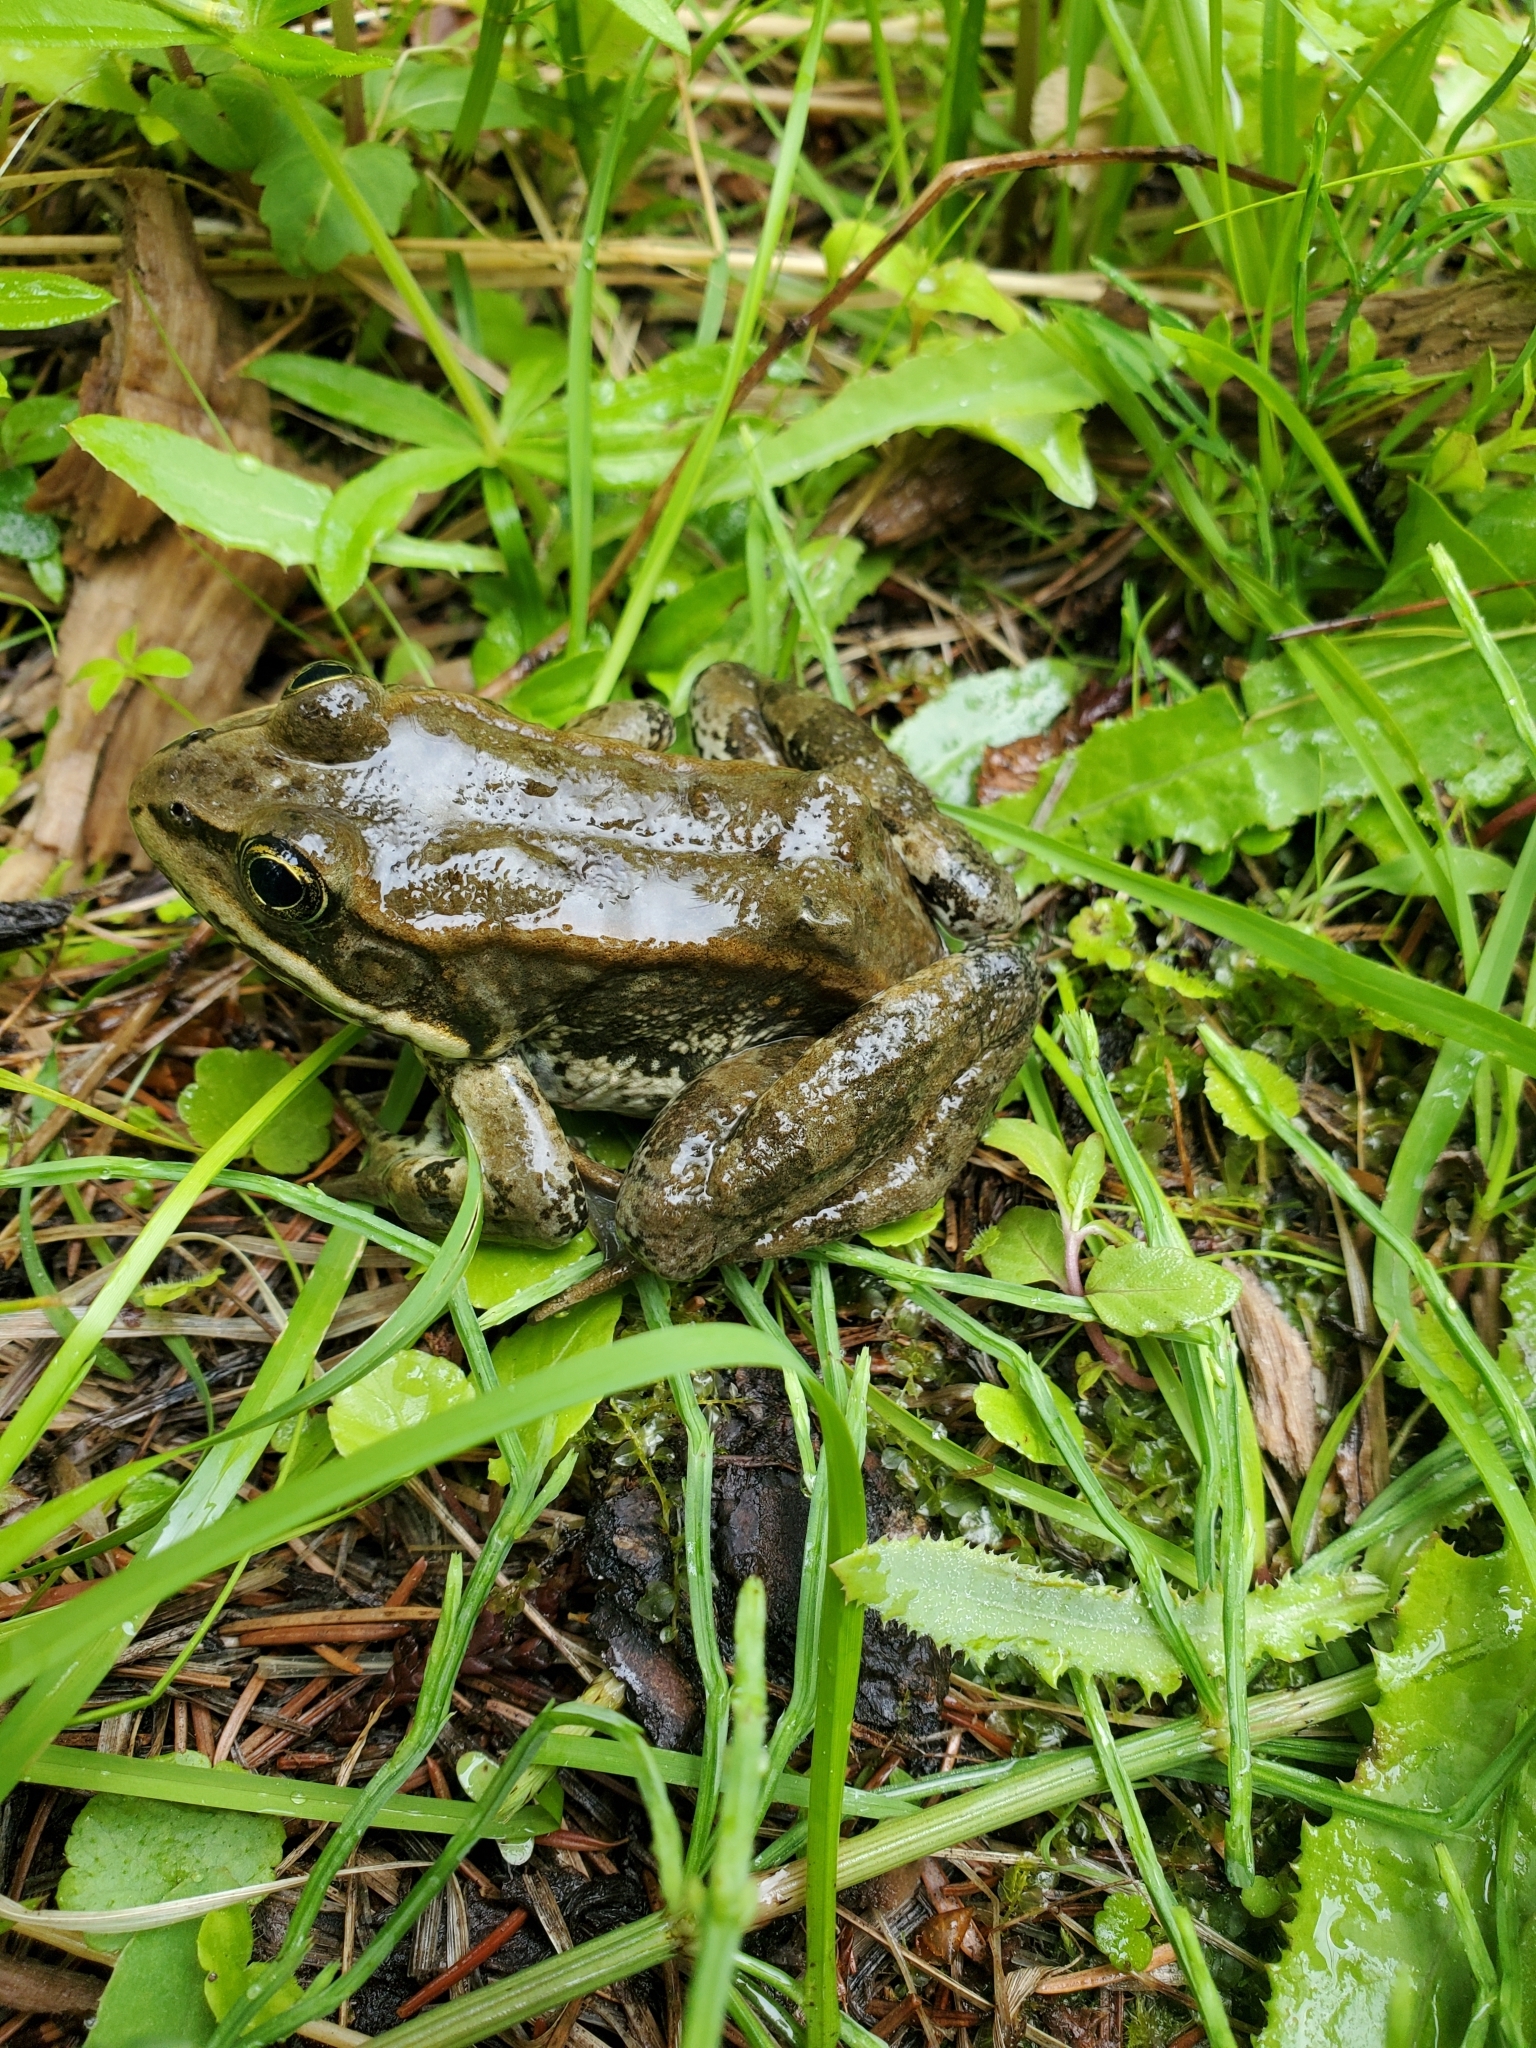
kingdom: Animalia
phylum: Chordata
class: Amphibia
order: Anura
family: Ranidae
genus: Rana
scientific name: Rana luteiventris
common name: Columbia spotted frog
